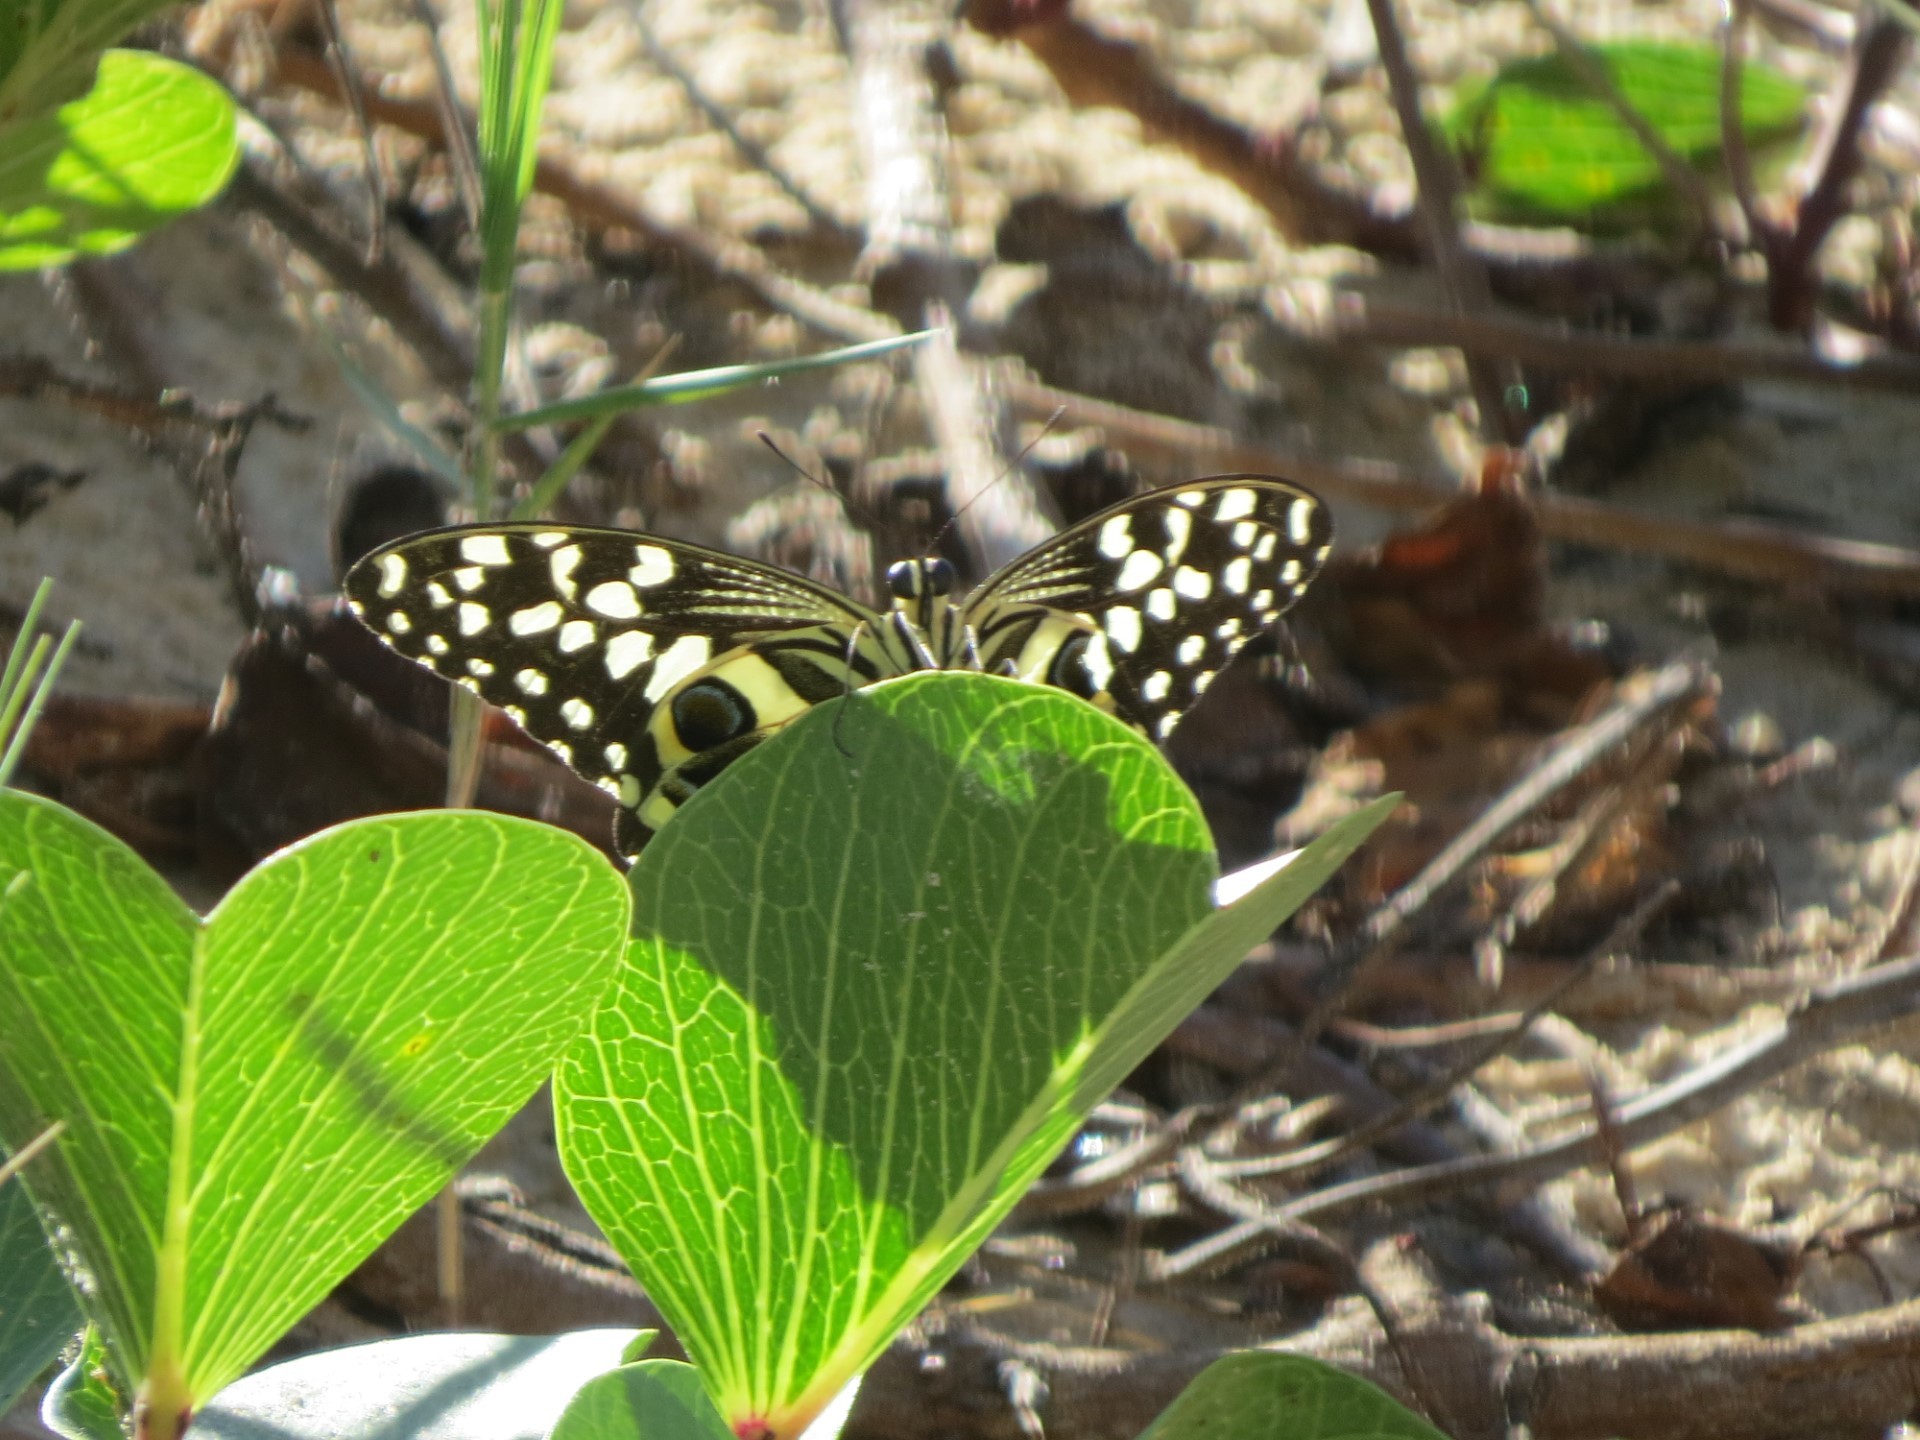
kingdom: Animalia
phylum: Arthropoda
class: Insecta
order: Lepidoptera
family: Papilionidae
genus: Papilio
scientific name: Papilio demodocus
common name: Christmas butterfly
